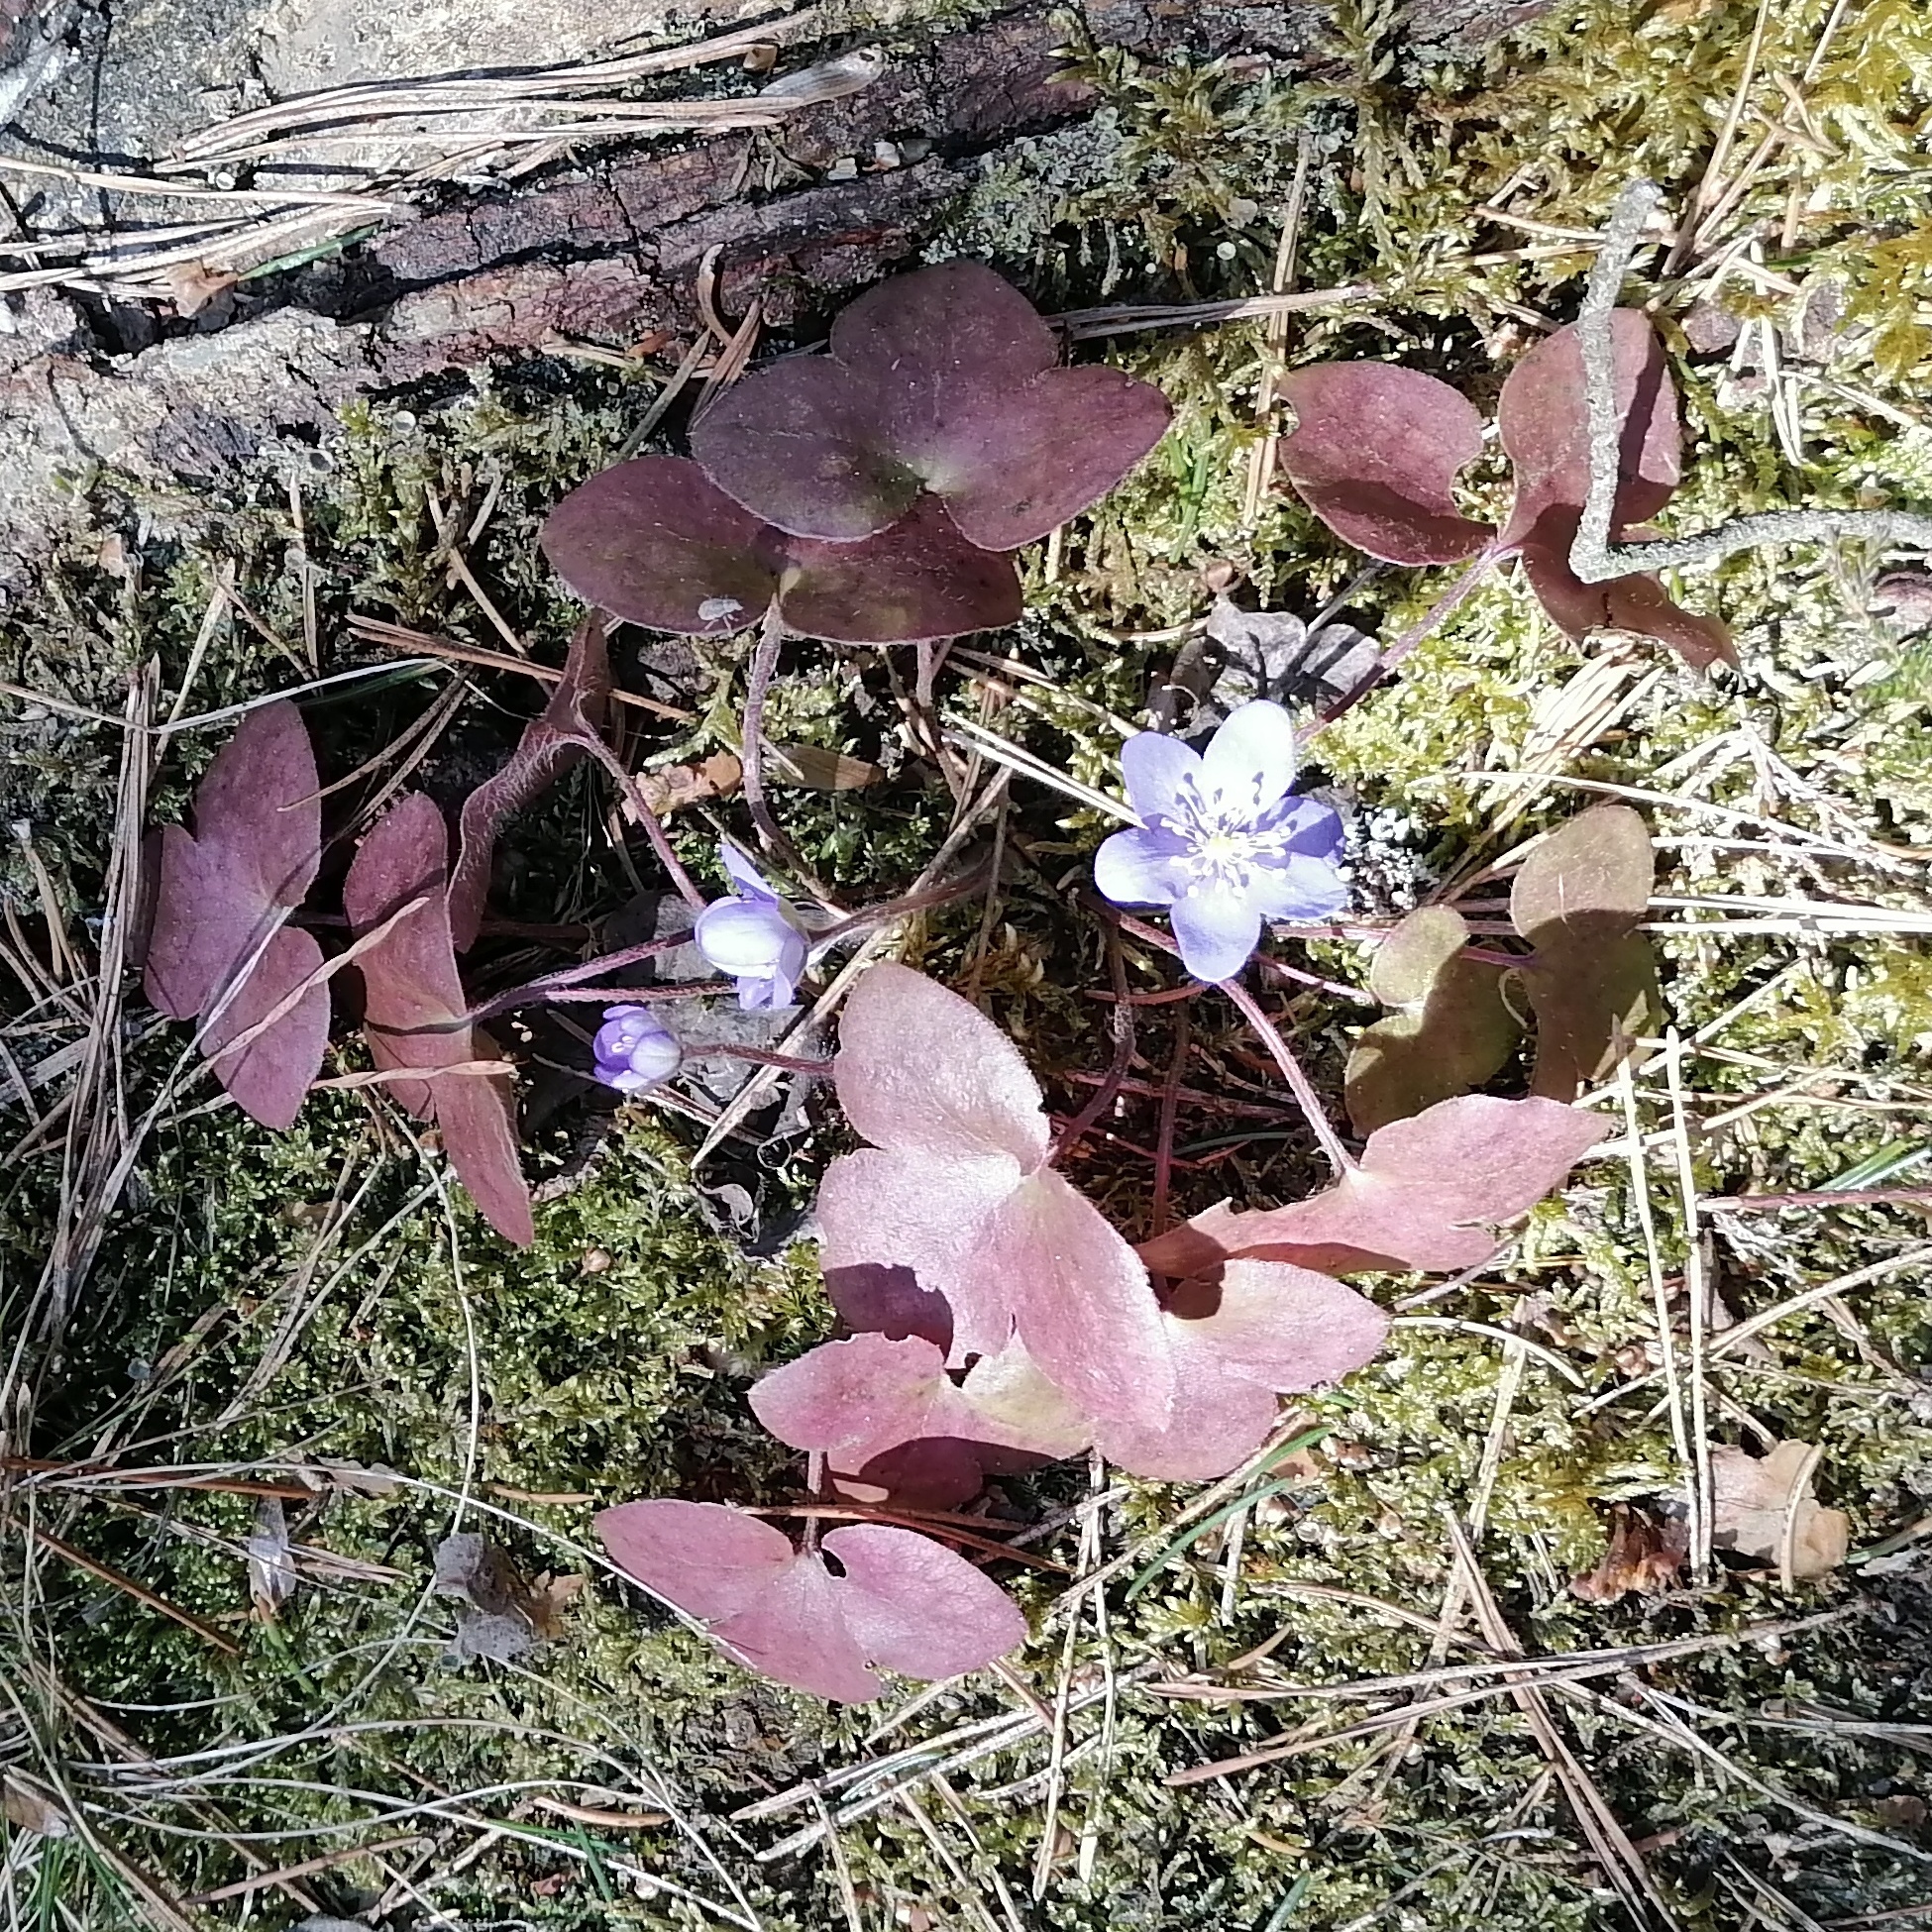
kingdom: Plantae
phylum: Tracheophyta
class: Magnoliopsida
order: Ranunculales
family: Ranunculaceae
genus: Hepatica
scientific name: Hepatica nobilis
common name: Liverleaf
